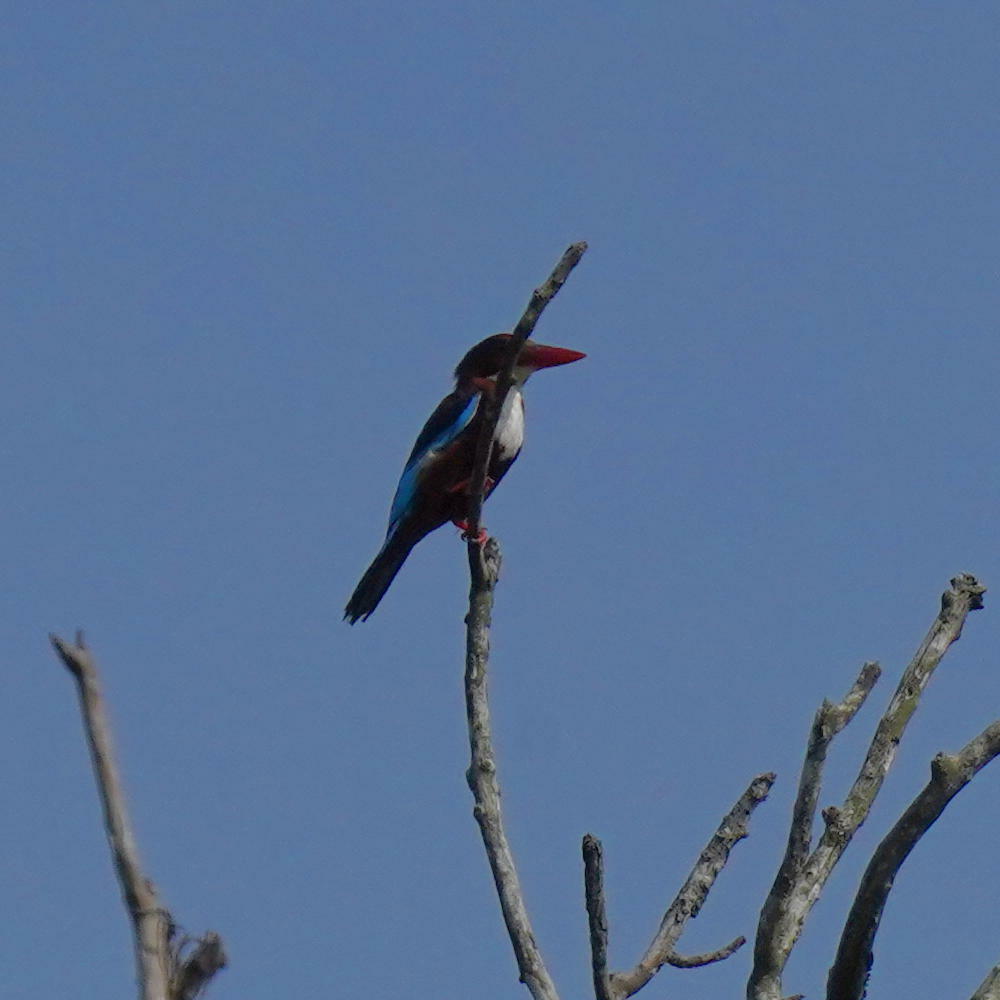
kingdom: Animalia
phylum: Chordata
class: Aves
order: Coraciiformes
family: Alcedinidae
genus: Halcyon
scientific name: Halcyon smyrnensis
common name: White-throated kingfisher
